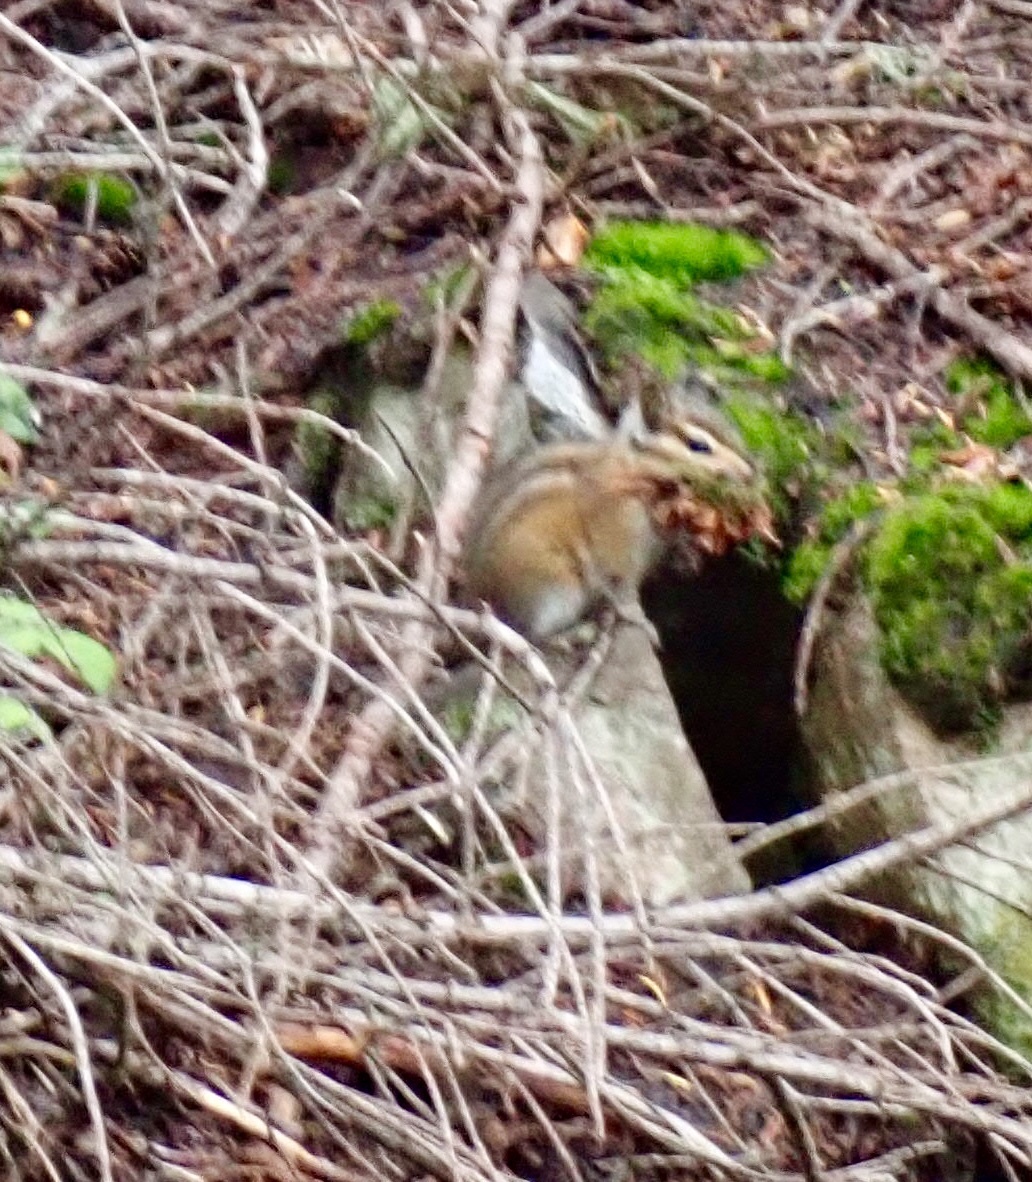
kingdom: Animalia
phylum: Chordata
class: Mammalia
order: Rodentia
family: Sciuridae
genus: Tamias
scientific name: Tamias amoenus
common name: Yellow-pine chipmunk
